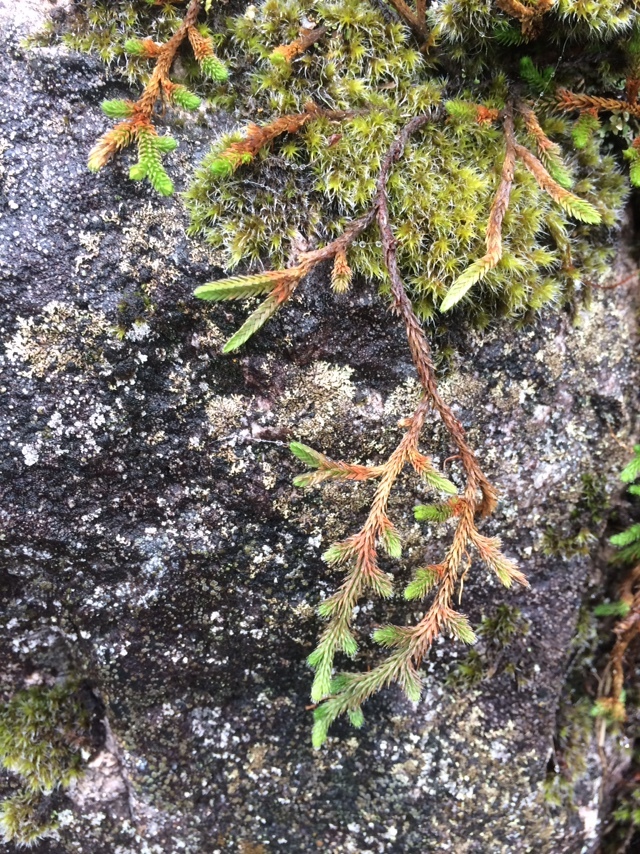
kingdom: Plantae
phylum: Tracheophyta
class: Lycopodiopsida
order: Selaginellales
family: Selaginellaceae
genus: Selaginella
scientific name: Selaginella wallacei
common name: Wallace's selaginella
